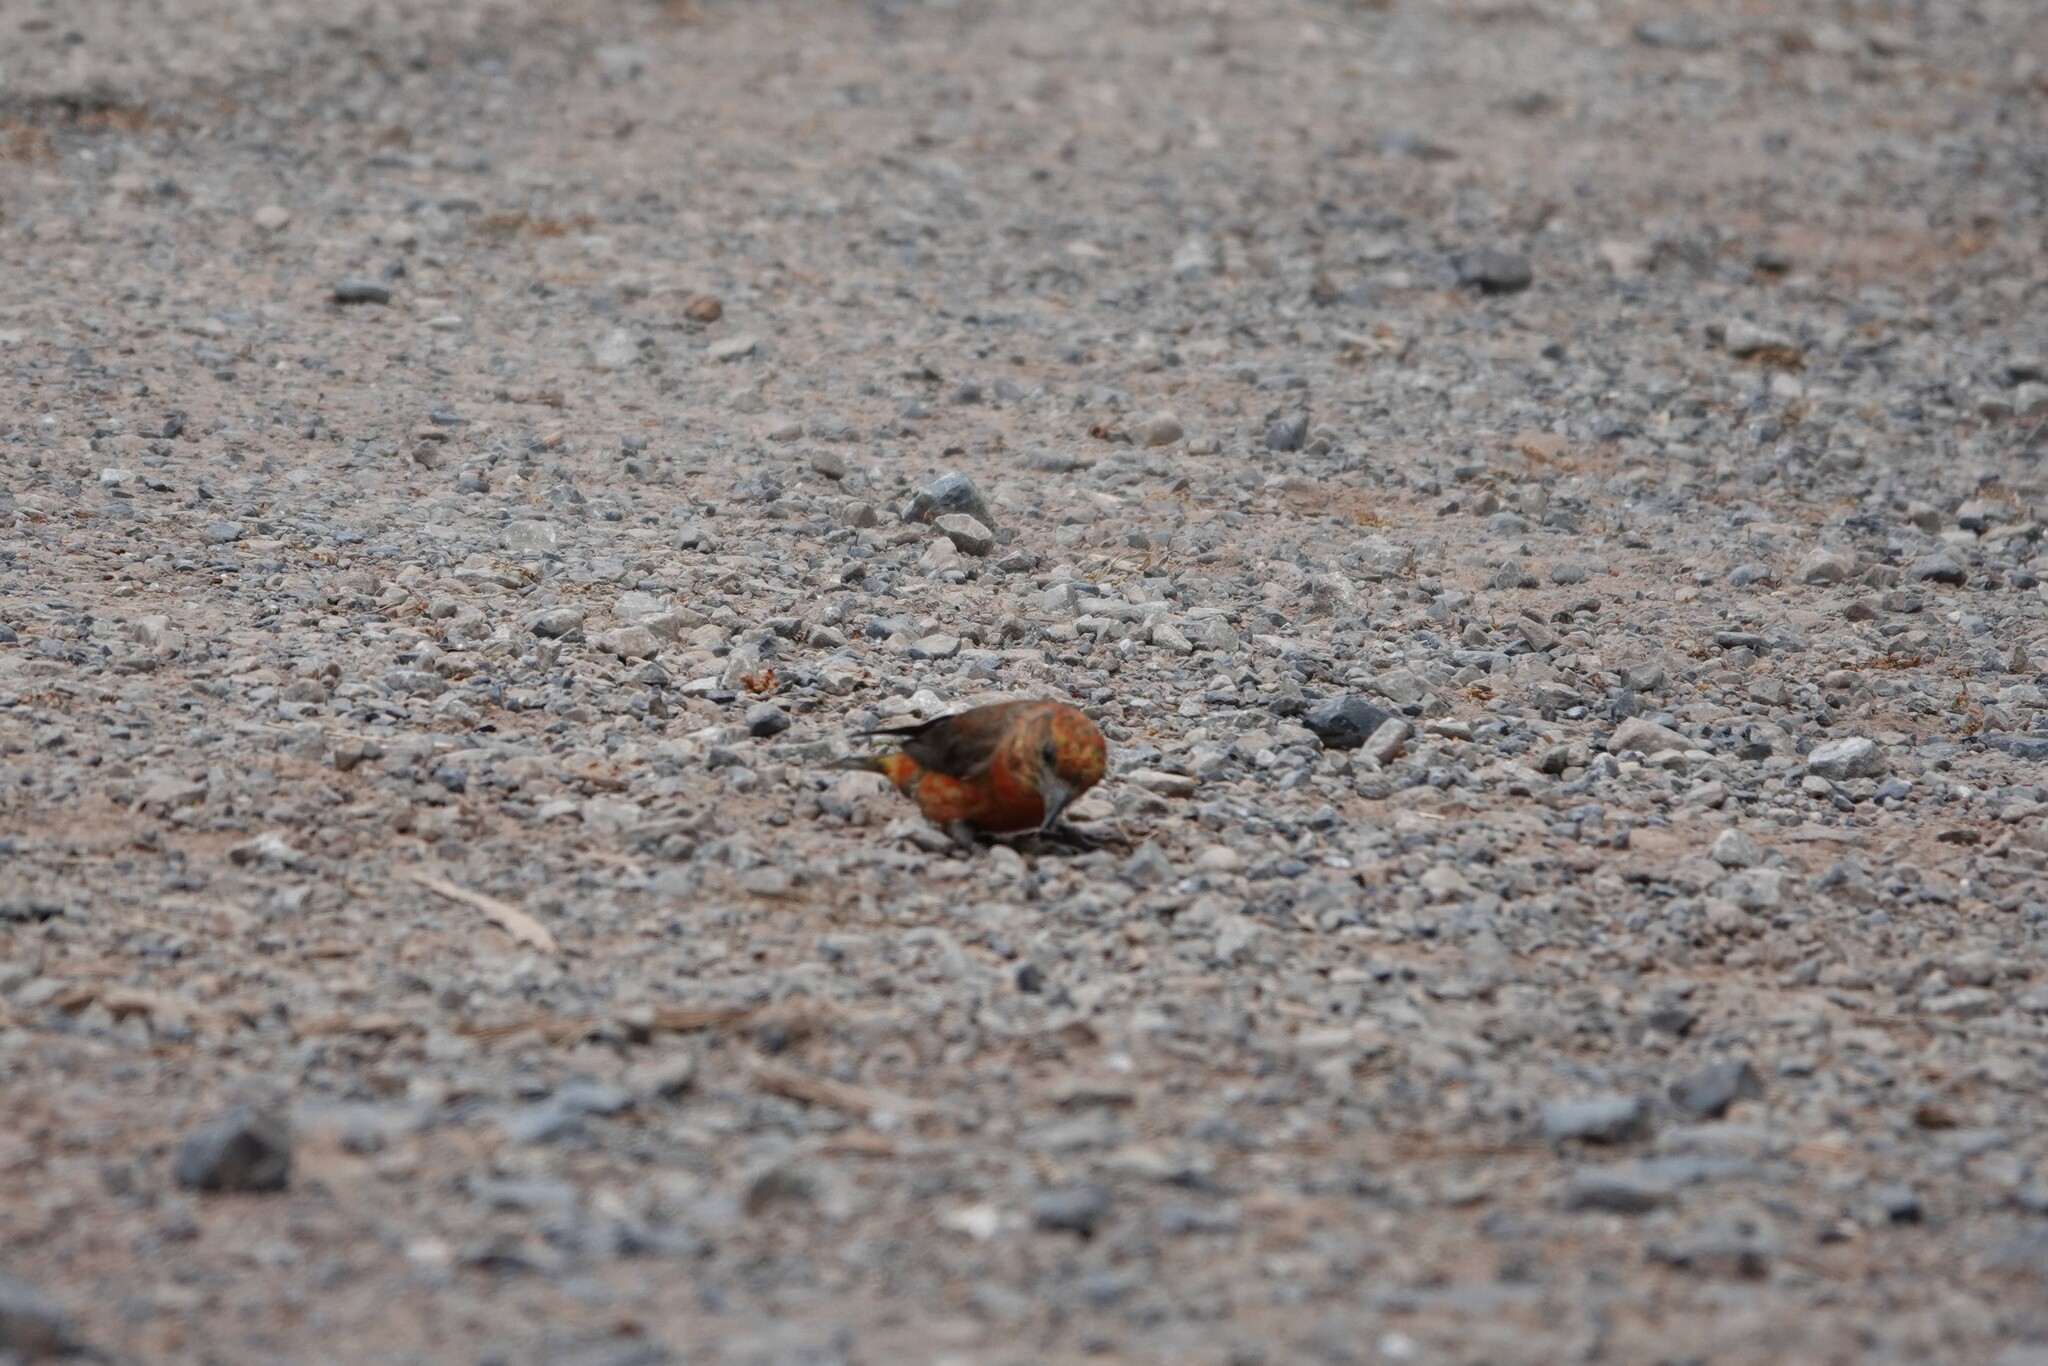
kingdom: Animalia
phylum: Chordata
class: Aves
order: Passeriformes
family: Fringillidae
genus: Loxia
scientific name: Loxia curvirostra
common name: Red crossbill
